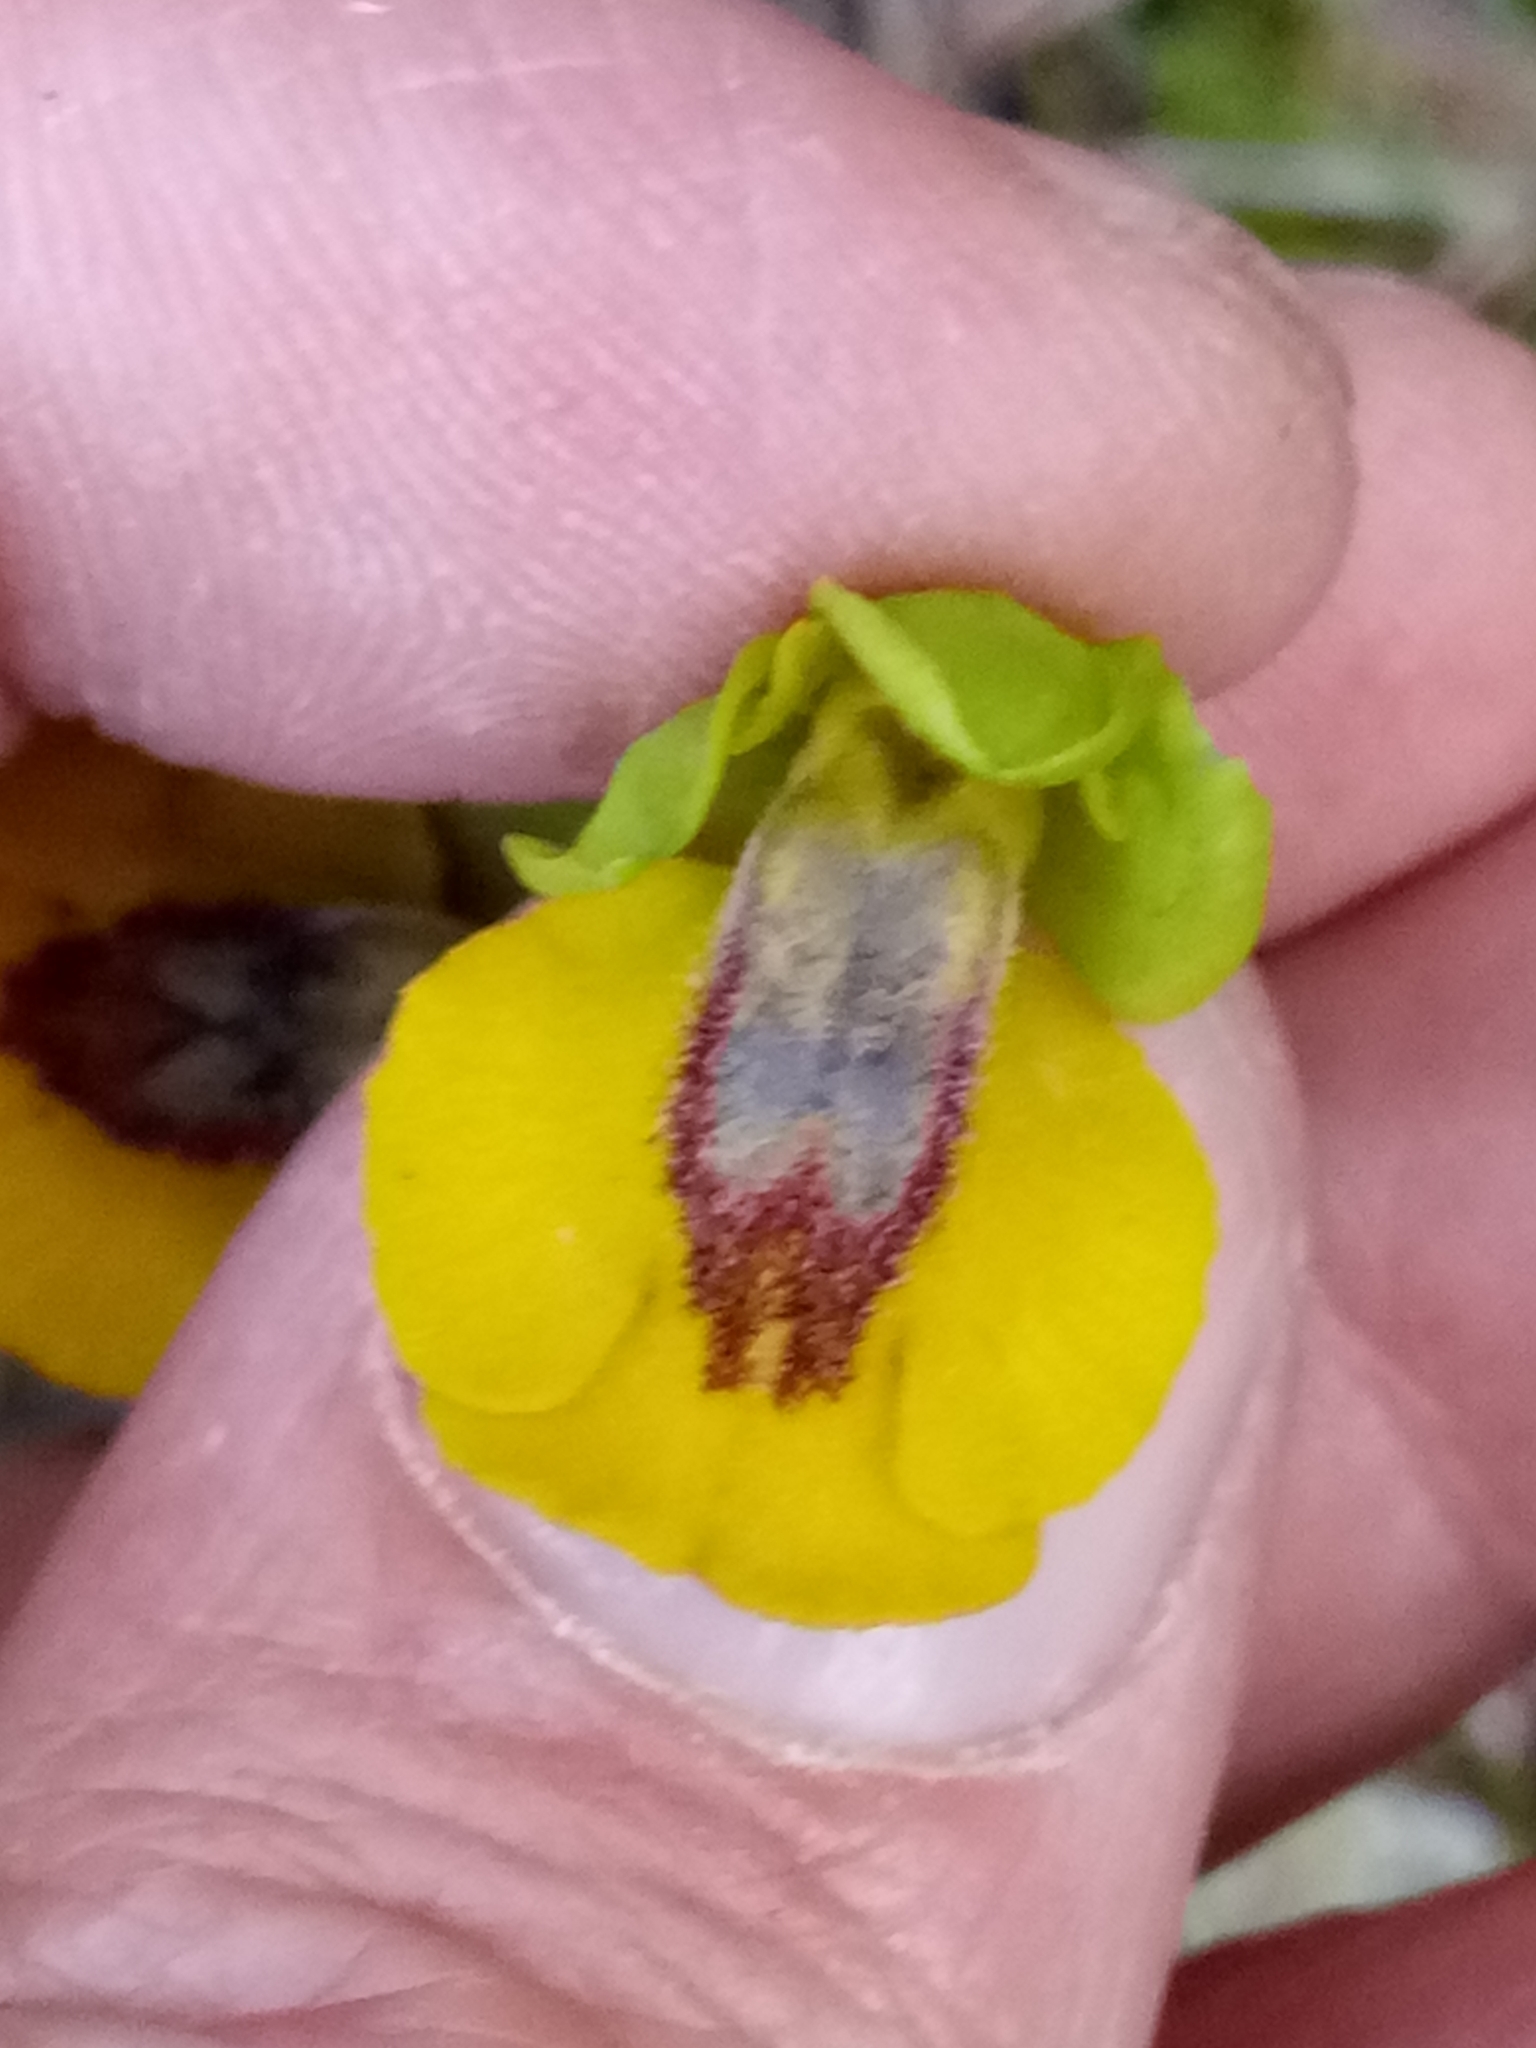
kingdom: Plantae
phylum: Tracheophyta
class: Liliopsida
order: Asparagales
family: Orchidaceae
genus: Ophrys
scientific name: Ophrys lutea
